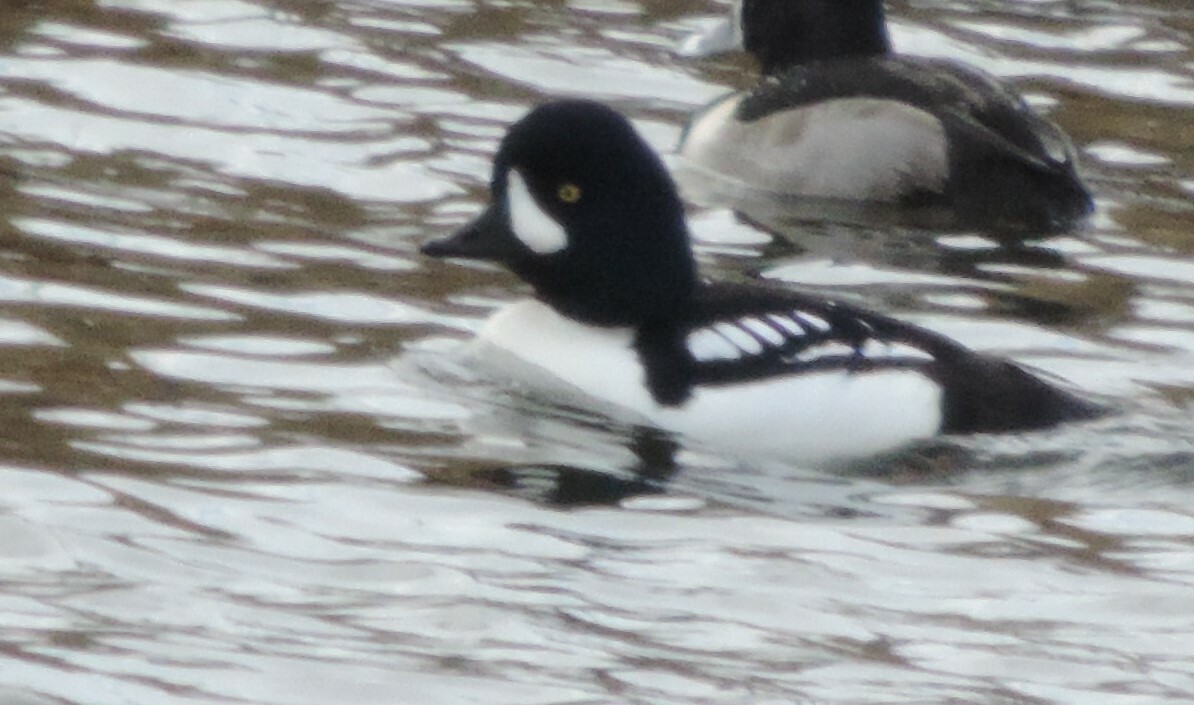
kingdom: Animalia
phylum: Chordata
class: Aves
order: Anseriformes
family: Anatidae
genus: Bucephala
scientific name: Bucephala islandica
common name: Barrow's goldeneye
